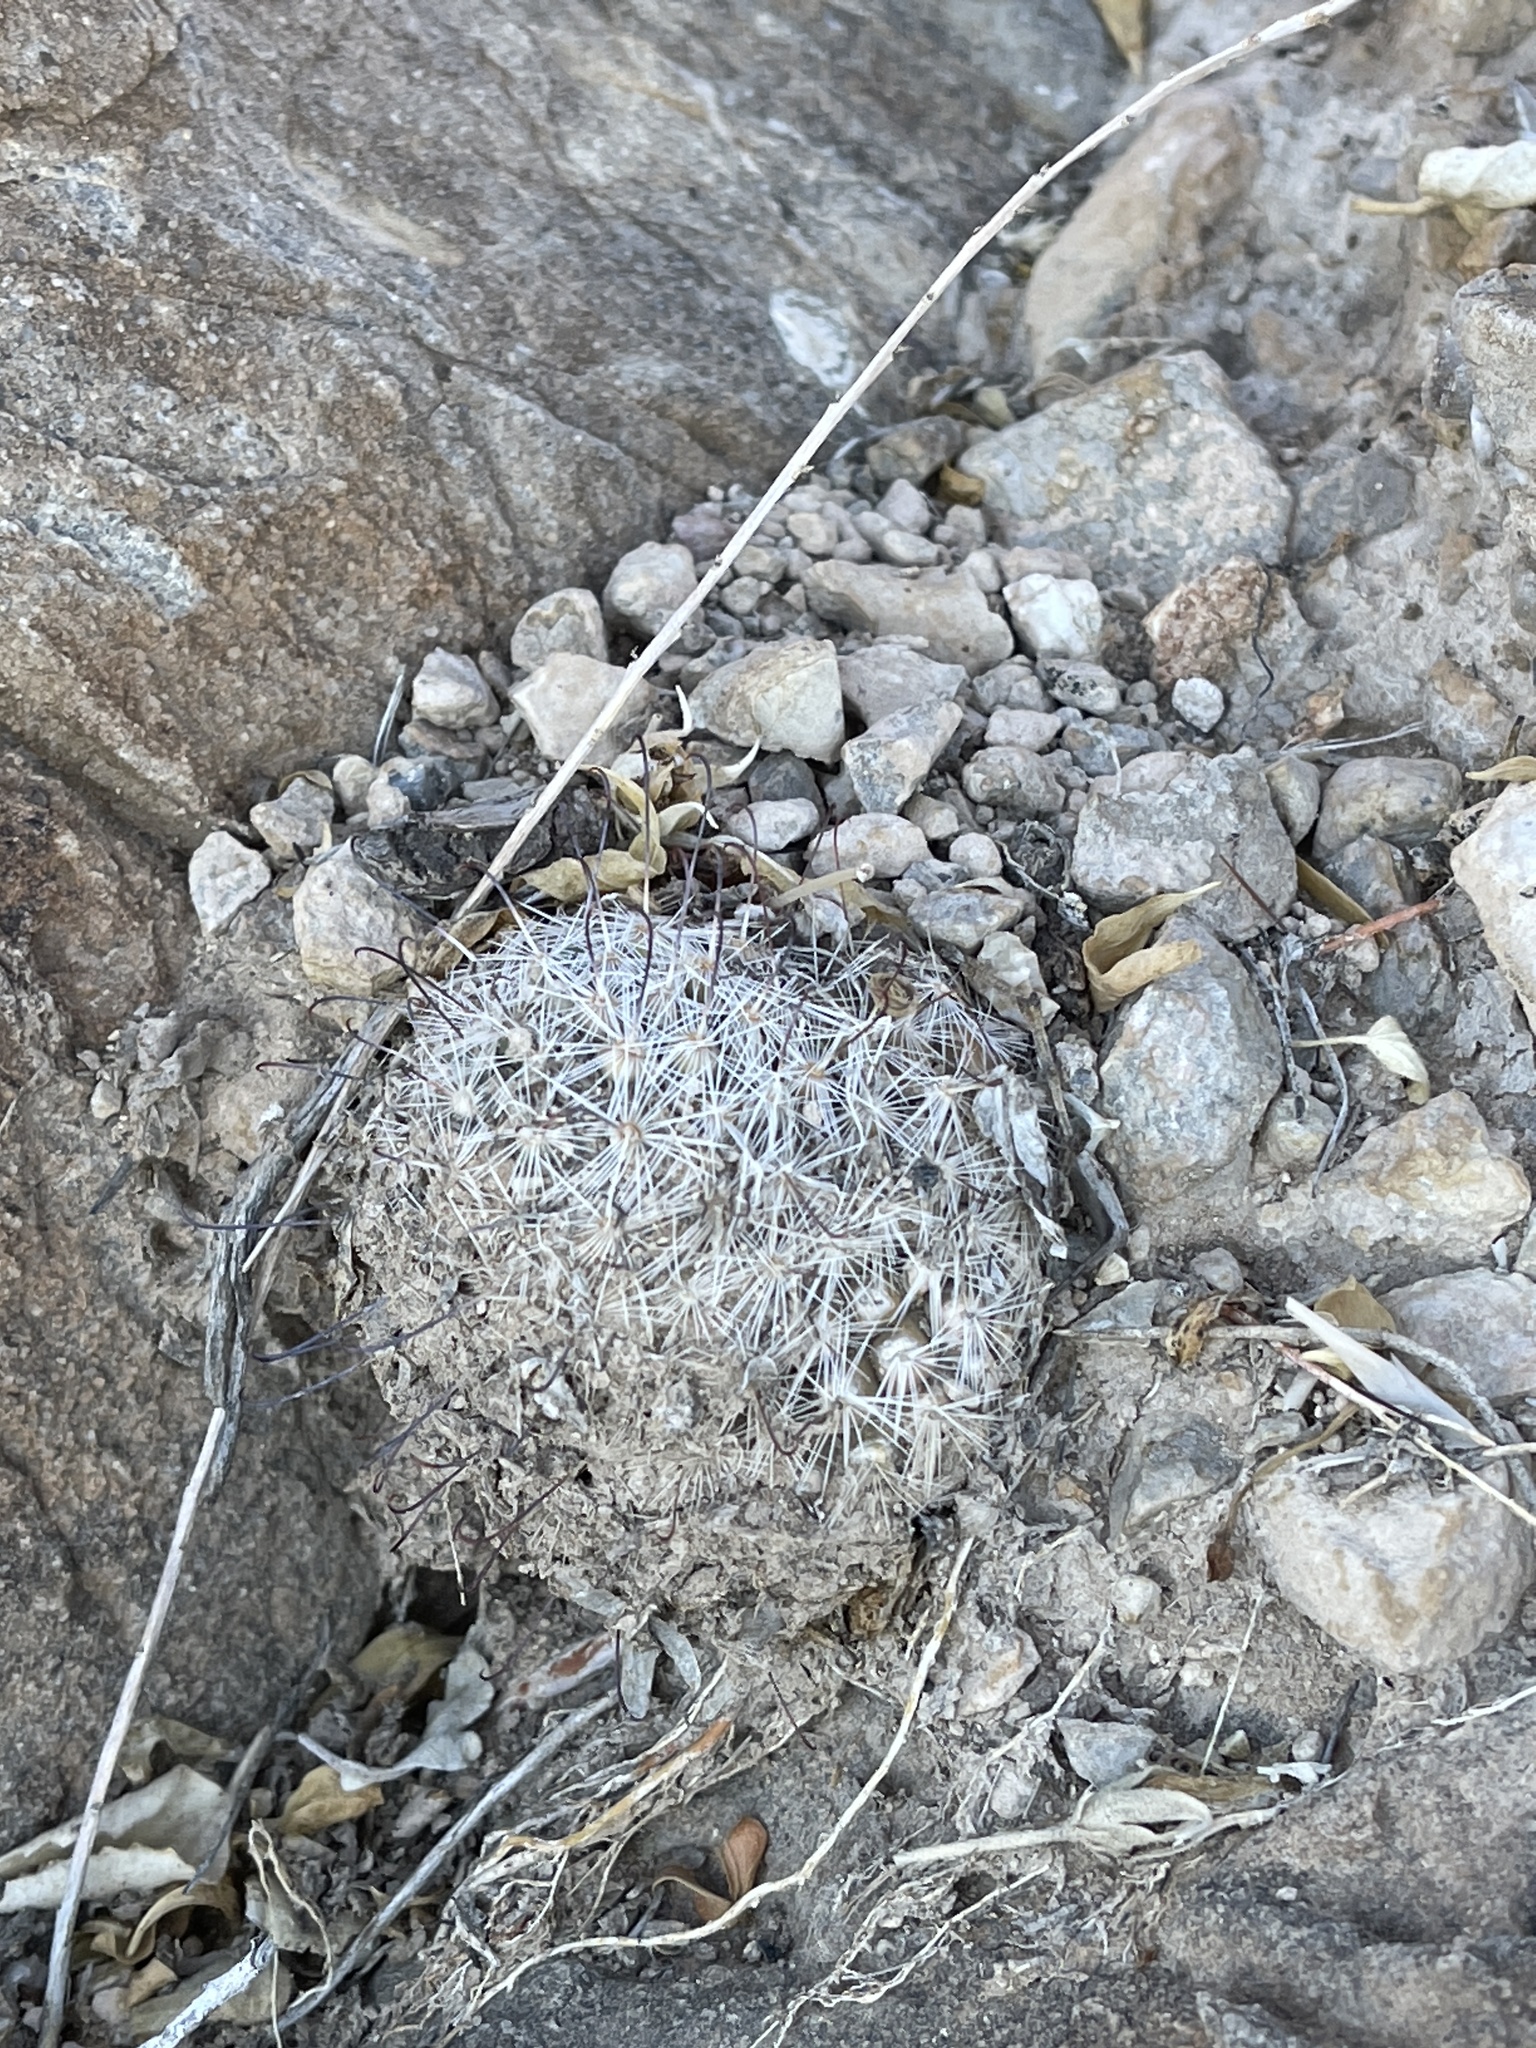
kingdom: Plantae
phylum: Tracheophyta
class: Magnoliopsida
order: Caryophyllales
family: Cactaceae
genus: Cochemiea
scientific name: Cochemiea grahamii
